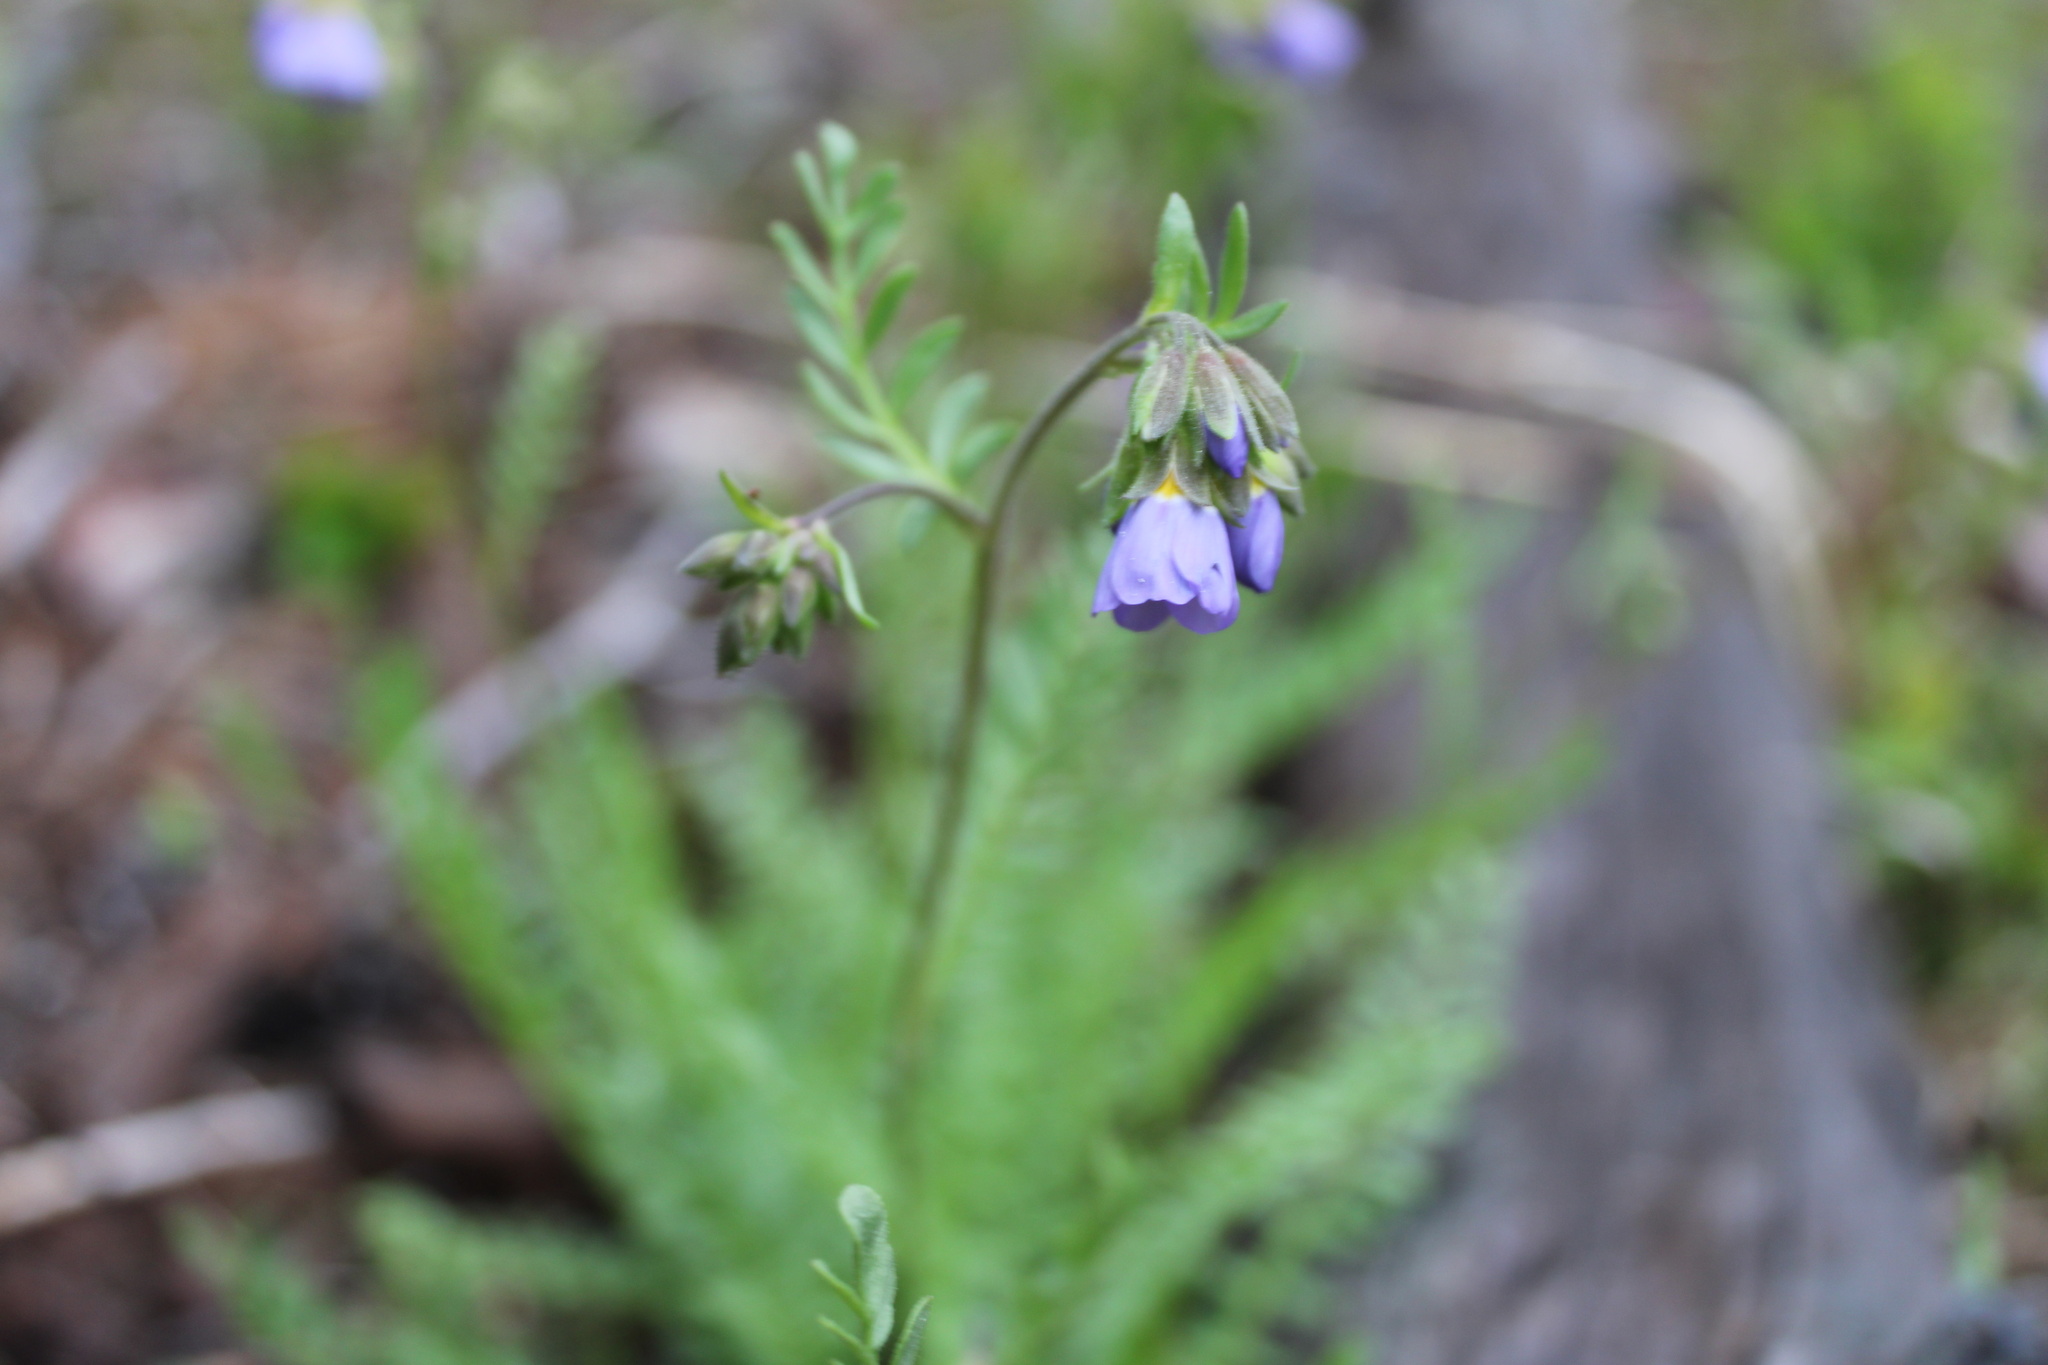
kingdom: Plantae
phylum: Tracheophyta
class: Magnoliopsida
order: Ericales
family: Polemoniaceae
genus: Polemonium
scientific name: Polemonium pulcherrimum
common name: Short jacob's-ladder
